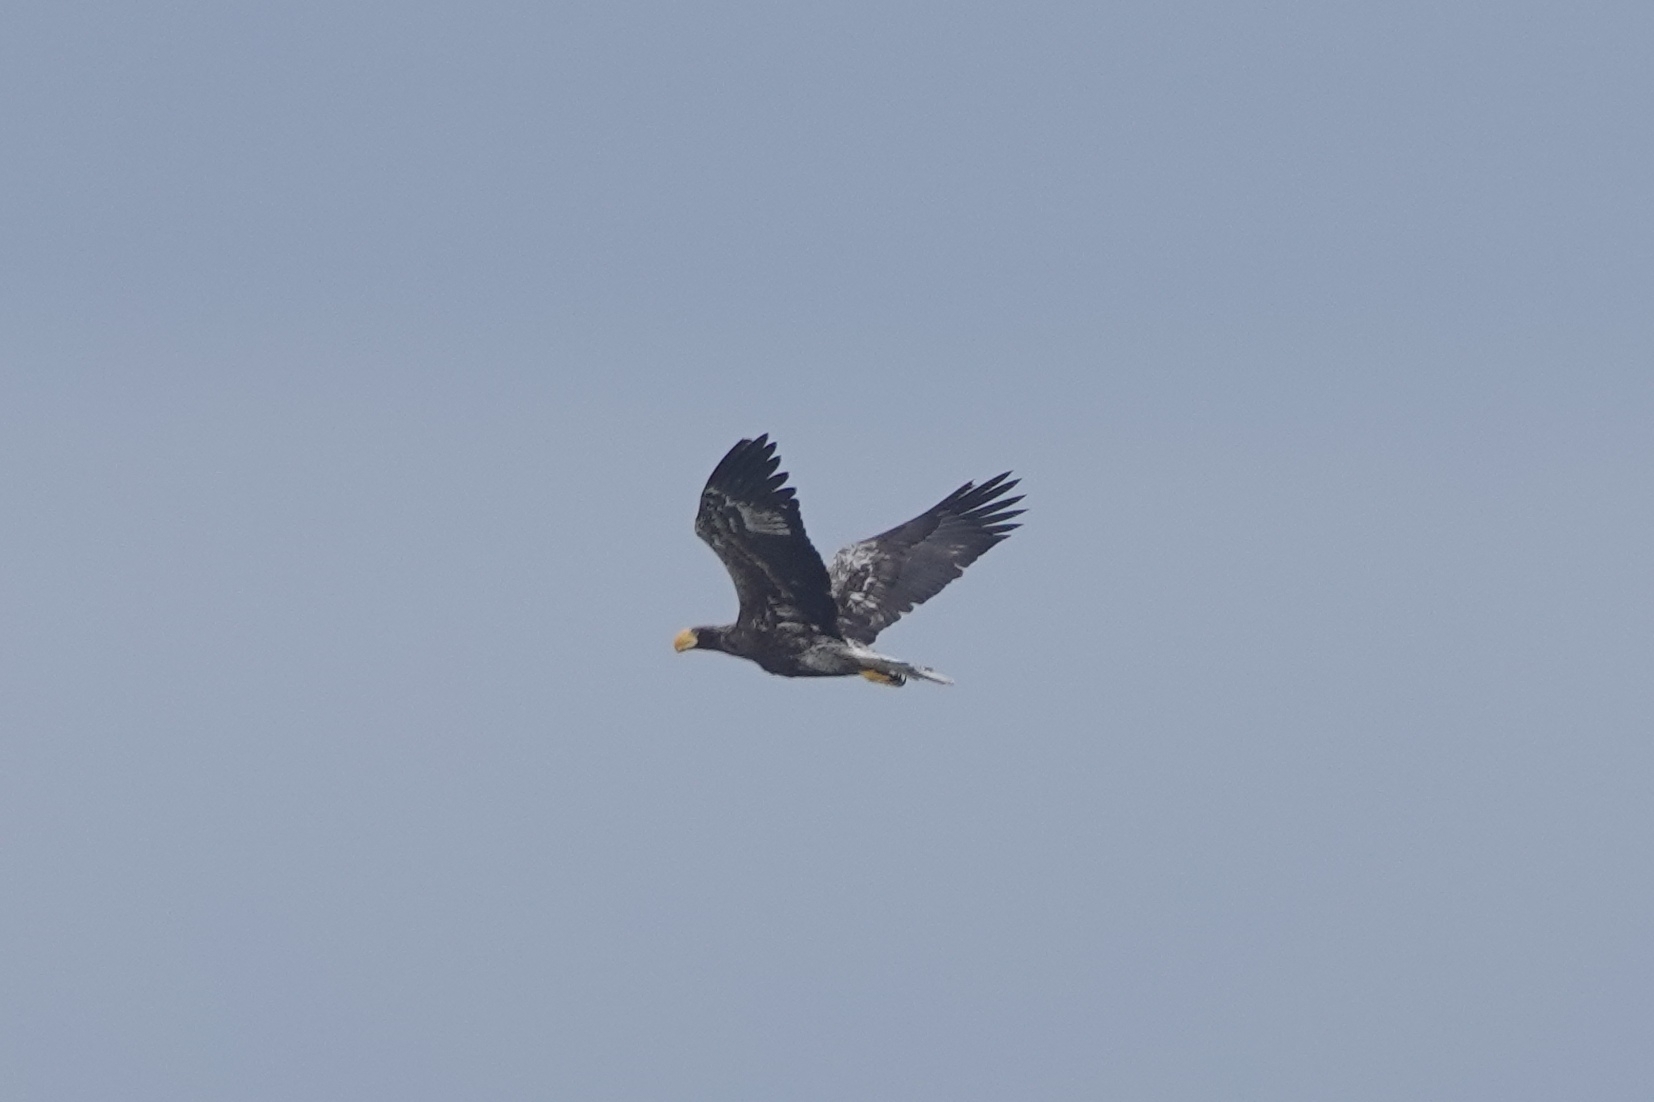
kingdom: Animalia
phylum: Chordata
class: Aves
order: Accipitriformes
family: Accipitridae
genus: Haliaeetus
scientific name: Haliaeetus pelagicus
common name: Steller's sea eagle
